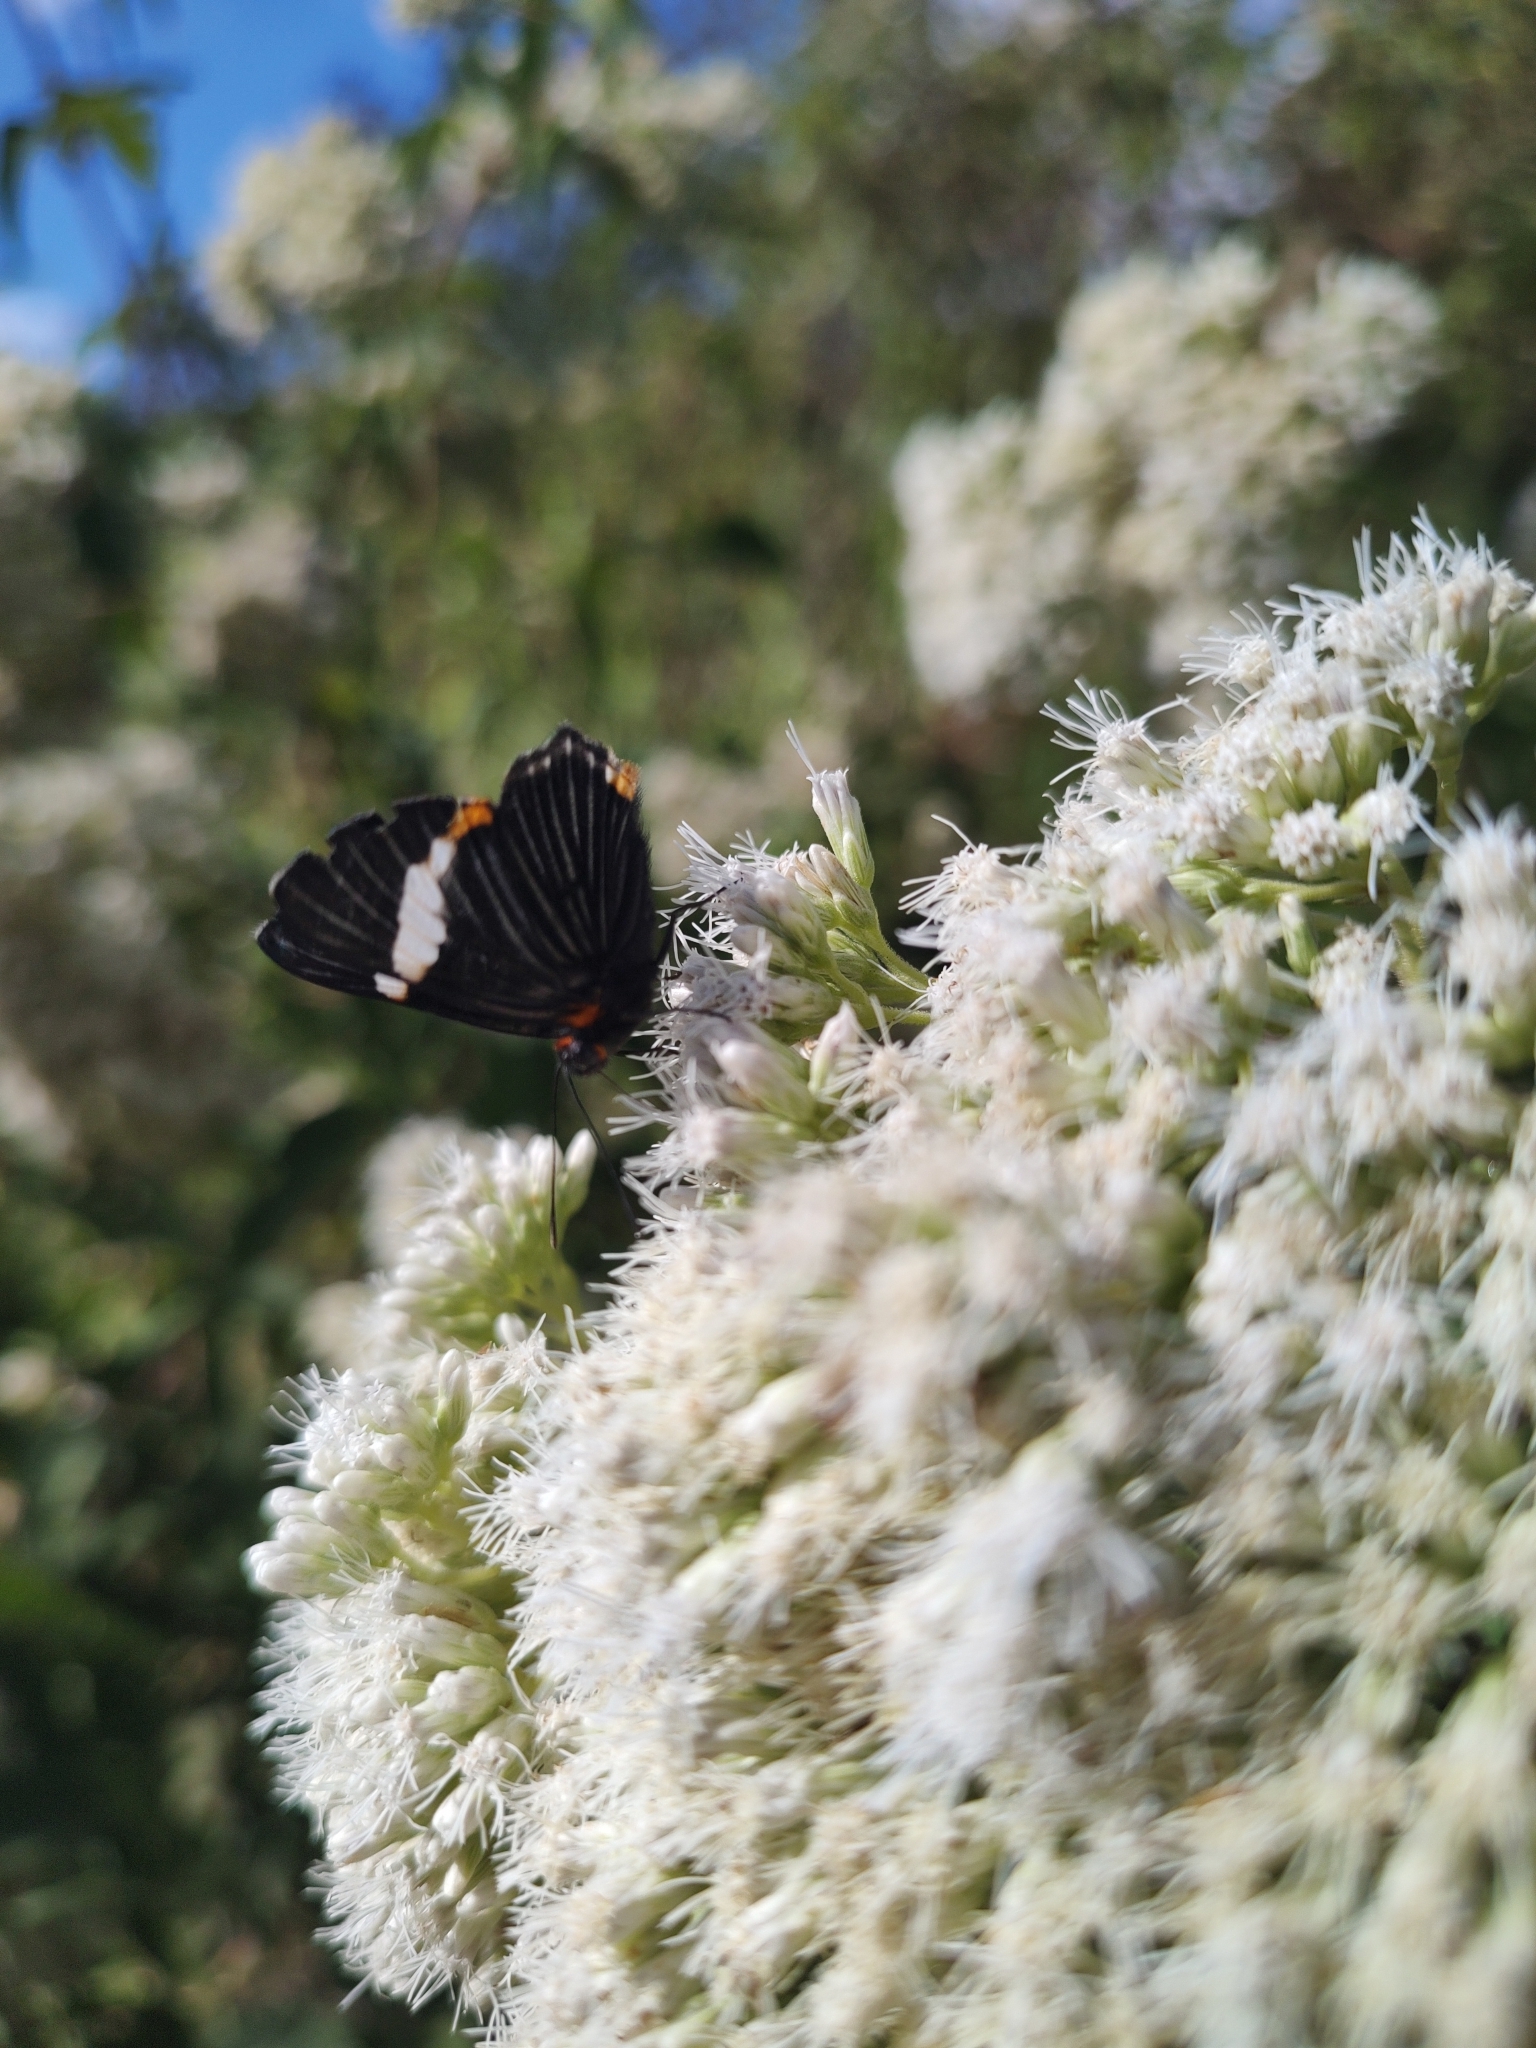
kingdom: Animalia
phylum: Arthropoda
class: Insecta
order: Lepidoptera
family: Riodinidae
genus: Riodina
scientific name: Riodina lycisca
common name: Lycisca metalmark
